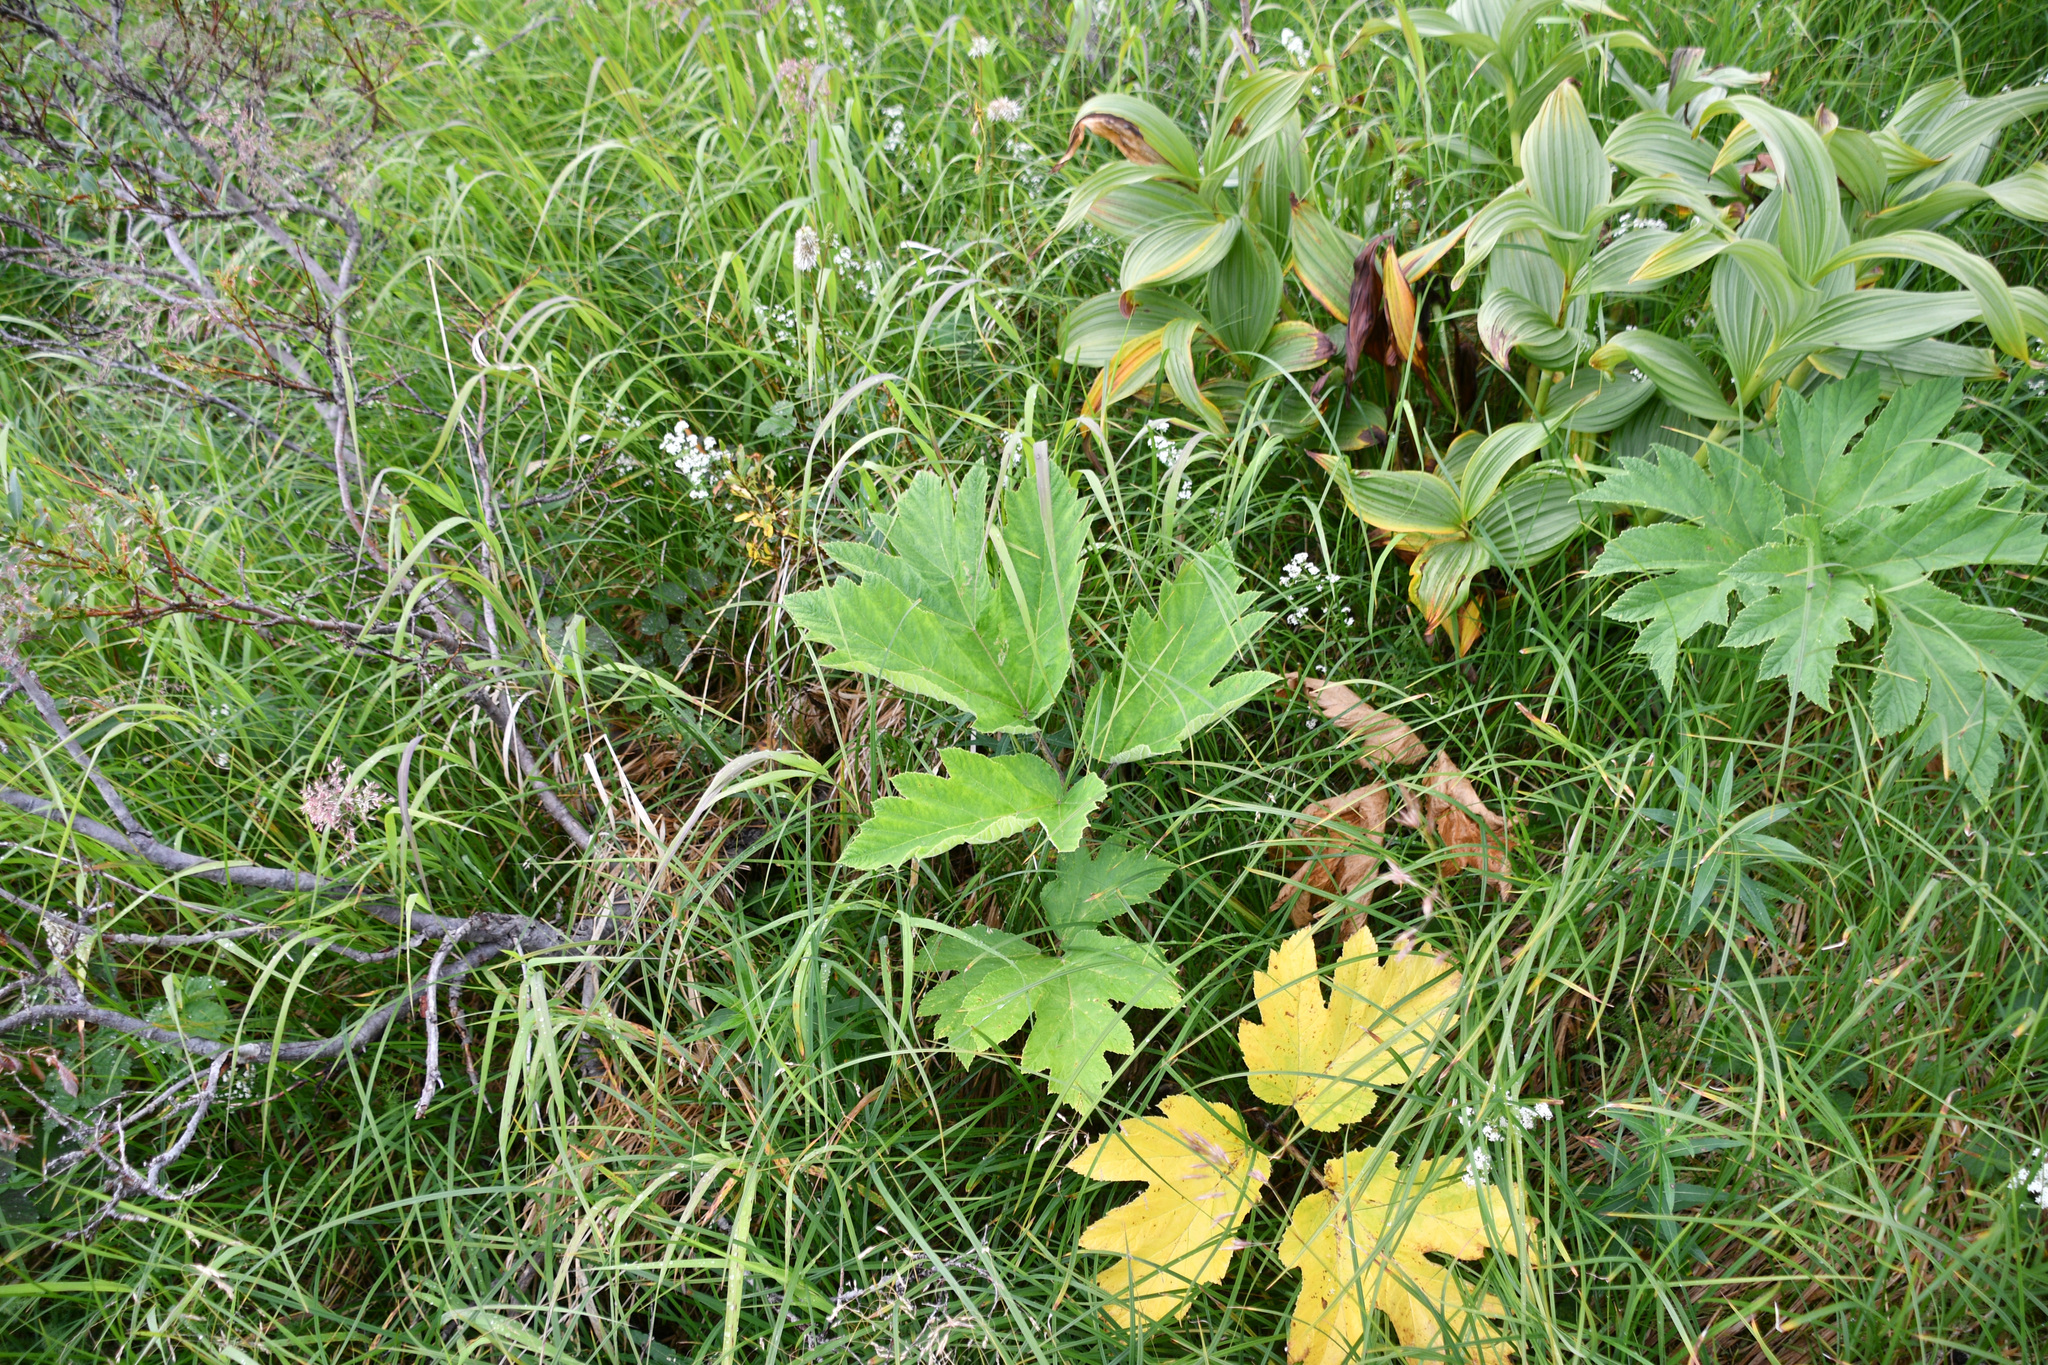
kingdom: Plantae
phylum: Tracheophyta
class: Magnoliopsida
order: Apiales
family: Apiaceae
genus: Heracleum
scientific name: Heracleum maximum
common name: American cow parsnip
